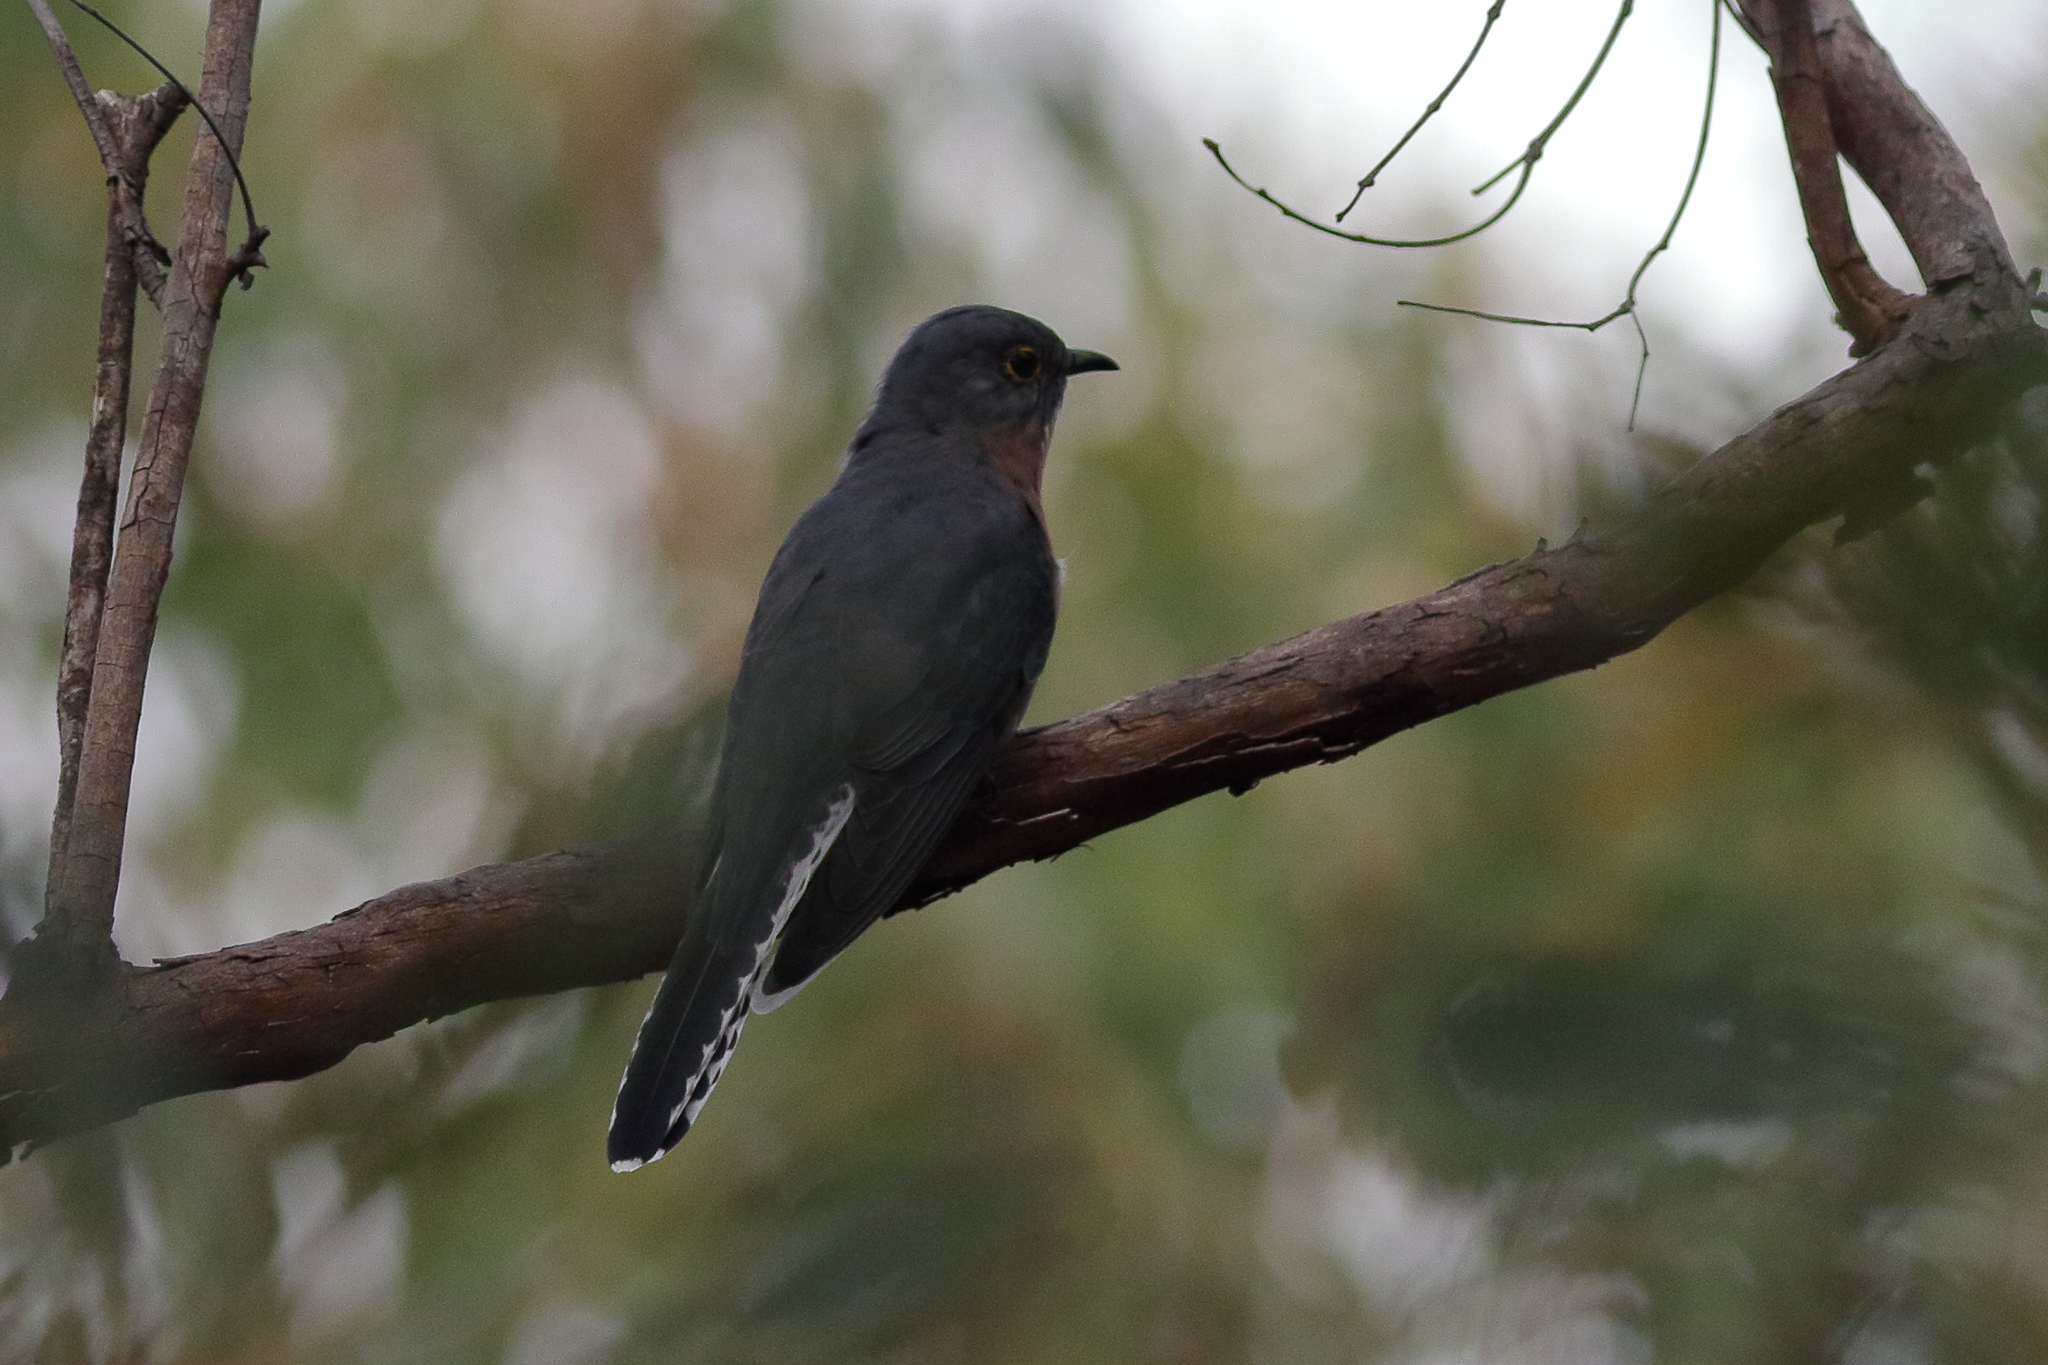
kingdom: Animalia
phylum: Chordata
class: Aves
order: Cuculiformes
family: Cuculidae
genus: Cacomantis
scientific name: Cacomantis flabelliformis
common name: Fan-tailed cuckoo
